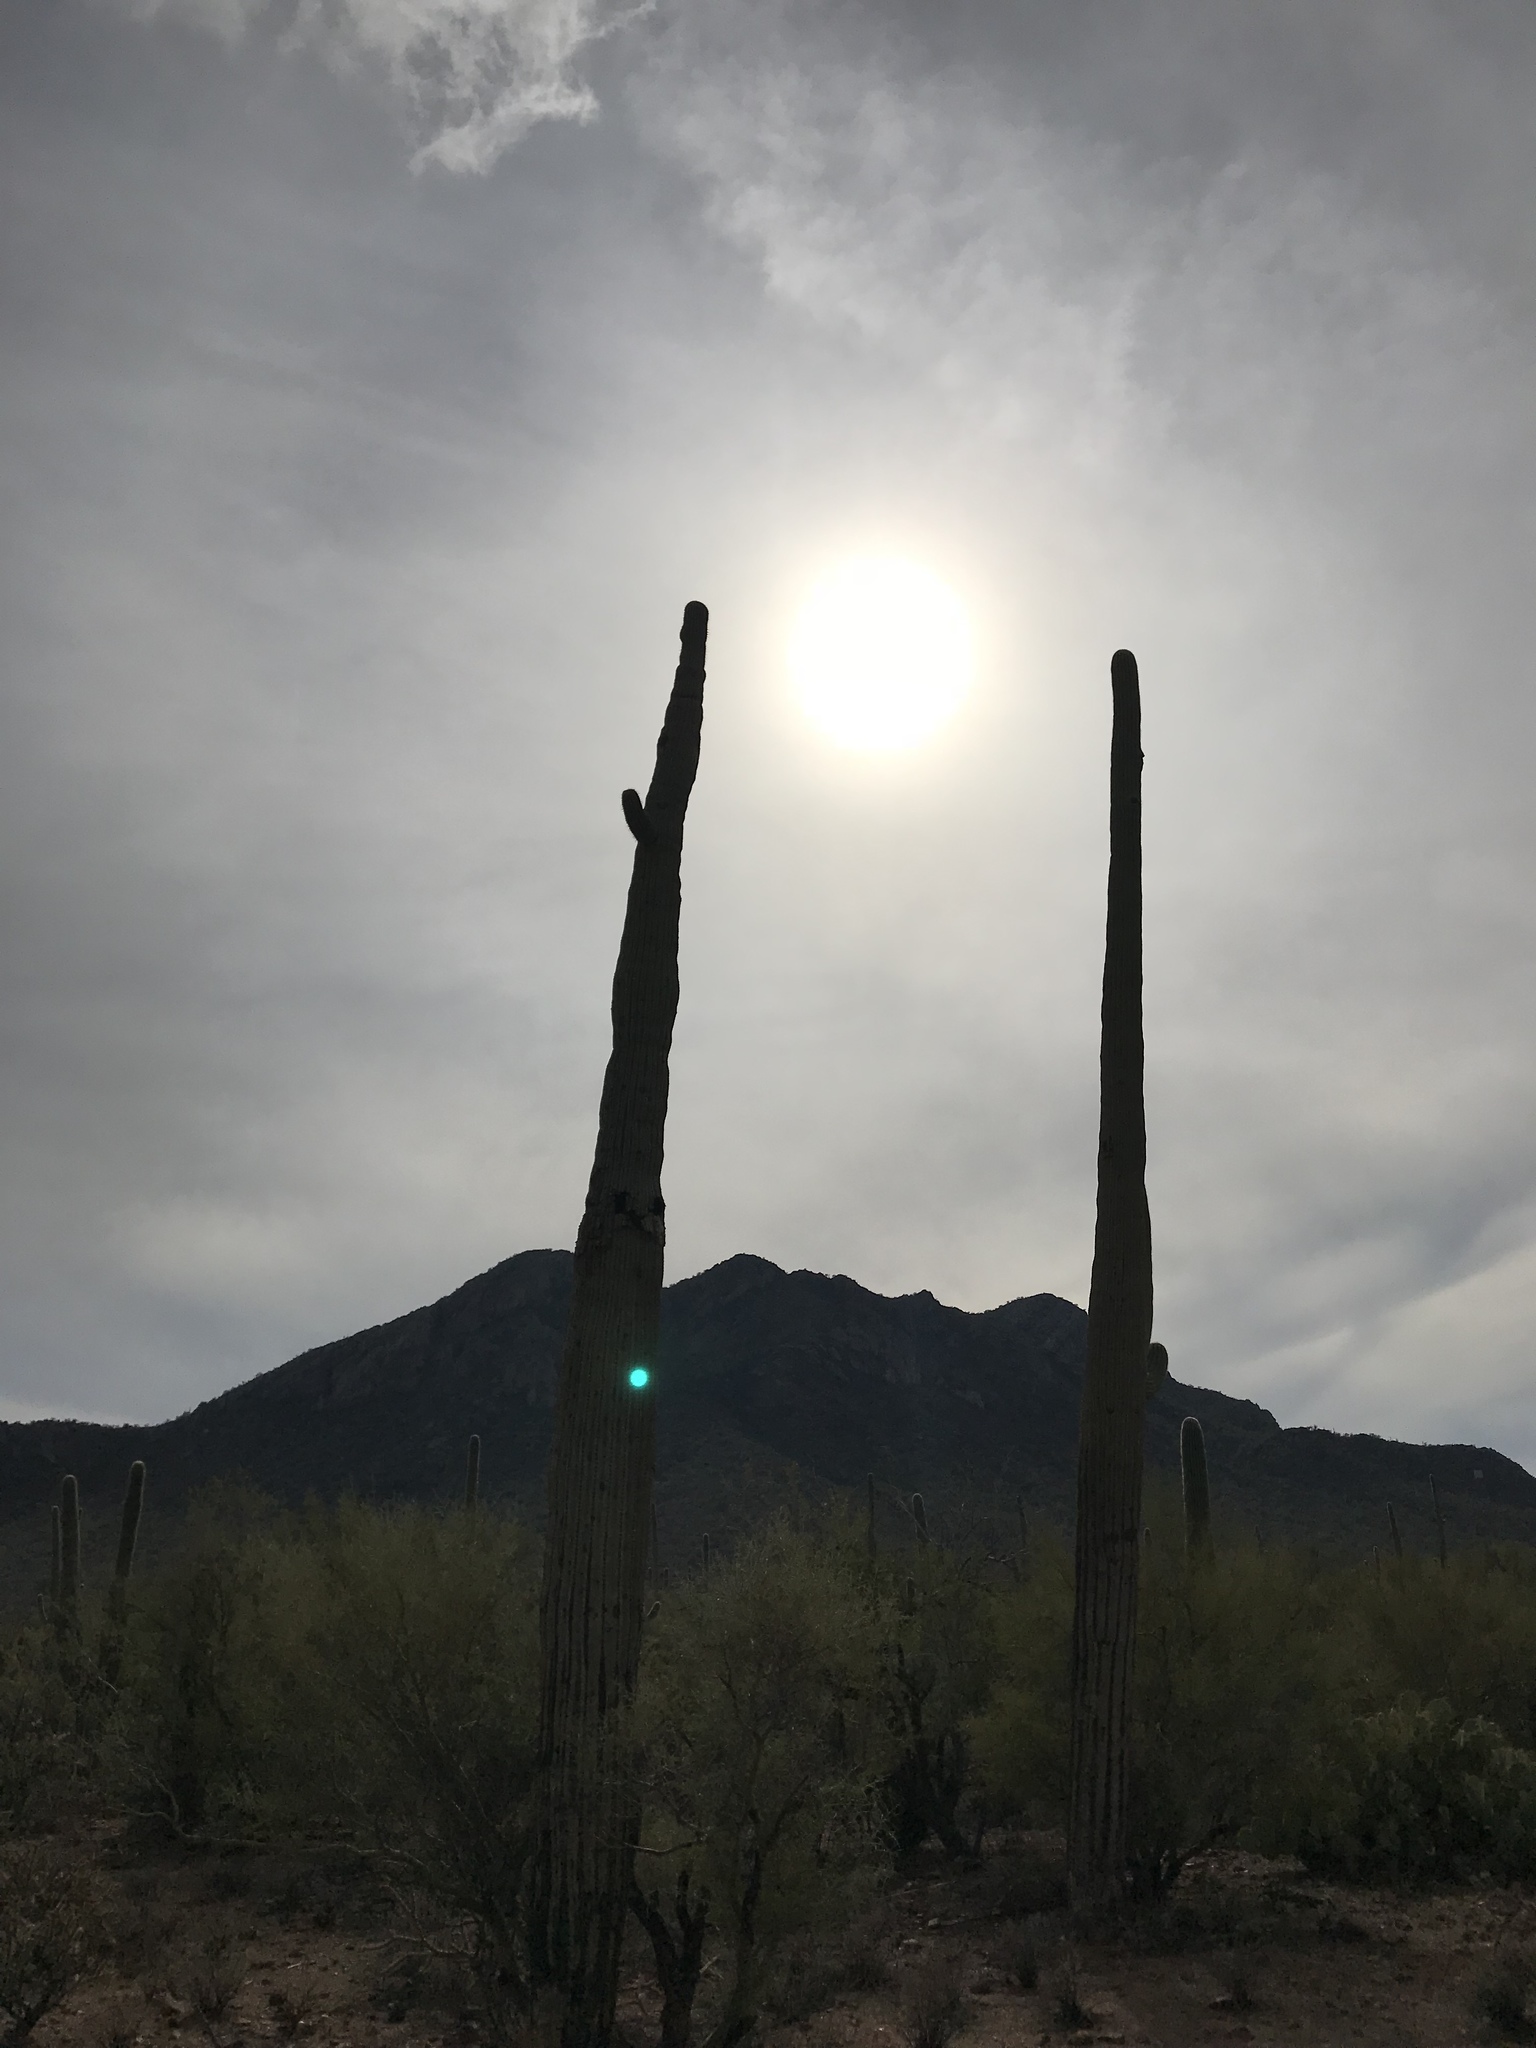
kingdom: Plantae
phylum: Tracheophyta
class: Magnoliopsida
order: Caryophyllales
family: Cactaceae
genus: Carnegiea
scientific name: Carnegiea gigantea
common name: Saguaro
